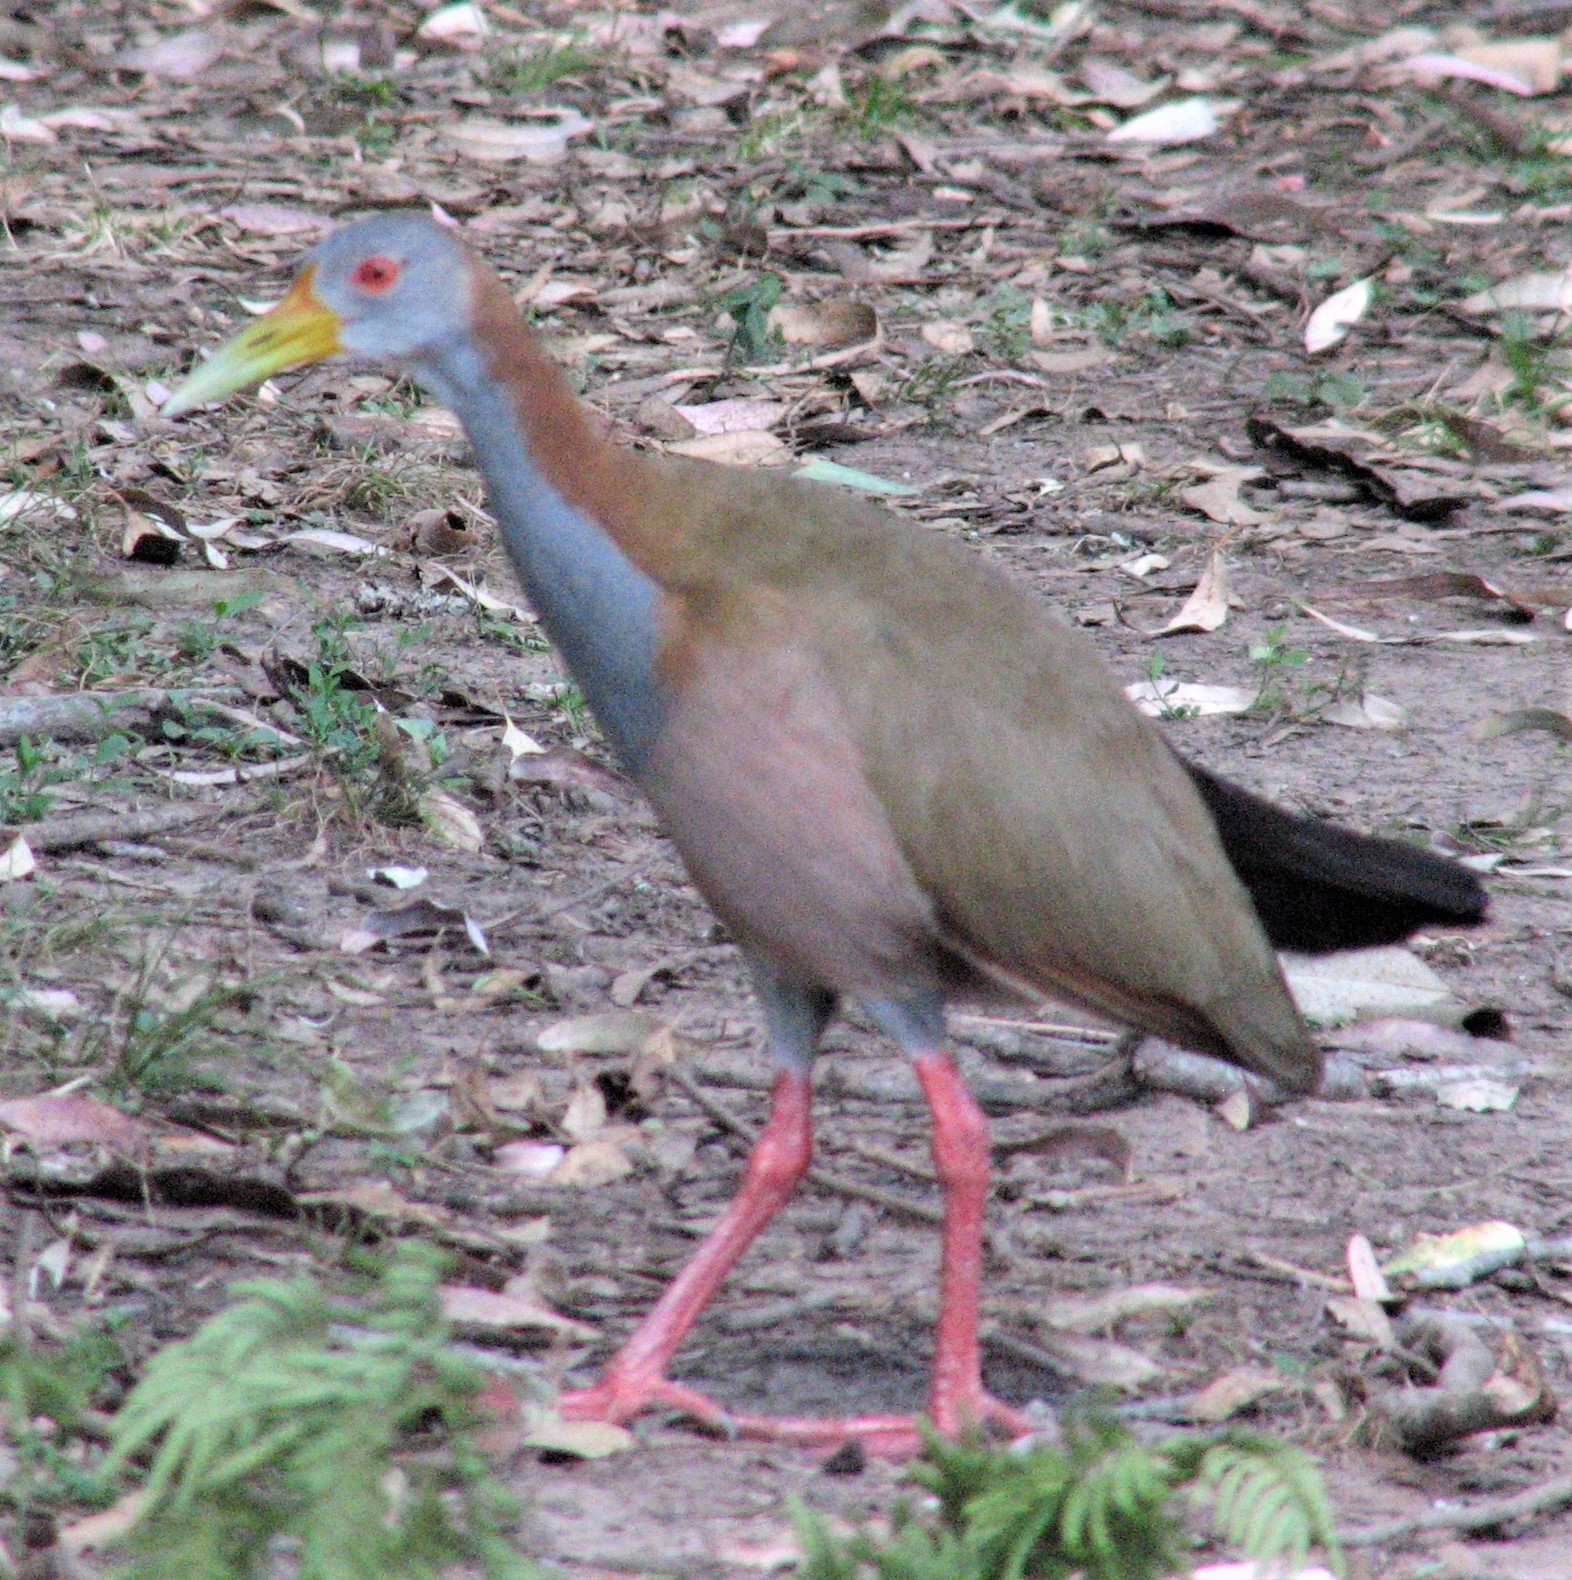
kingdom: Animalia
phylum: Chordata
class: Aves
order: Gruiformes
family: Rallidae
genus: Aramides
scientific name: Aramides ypecaha
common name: Giant wood rail
